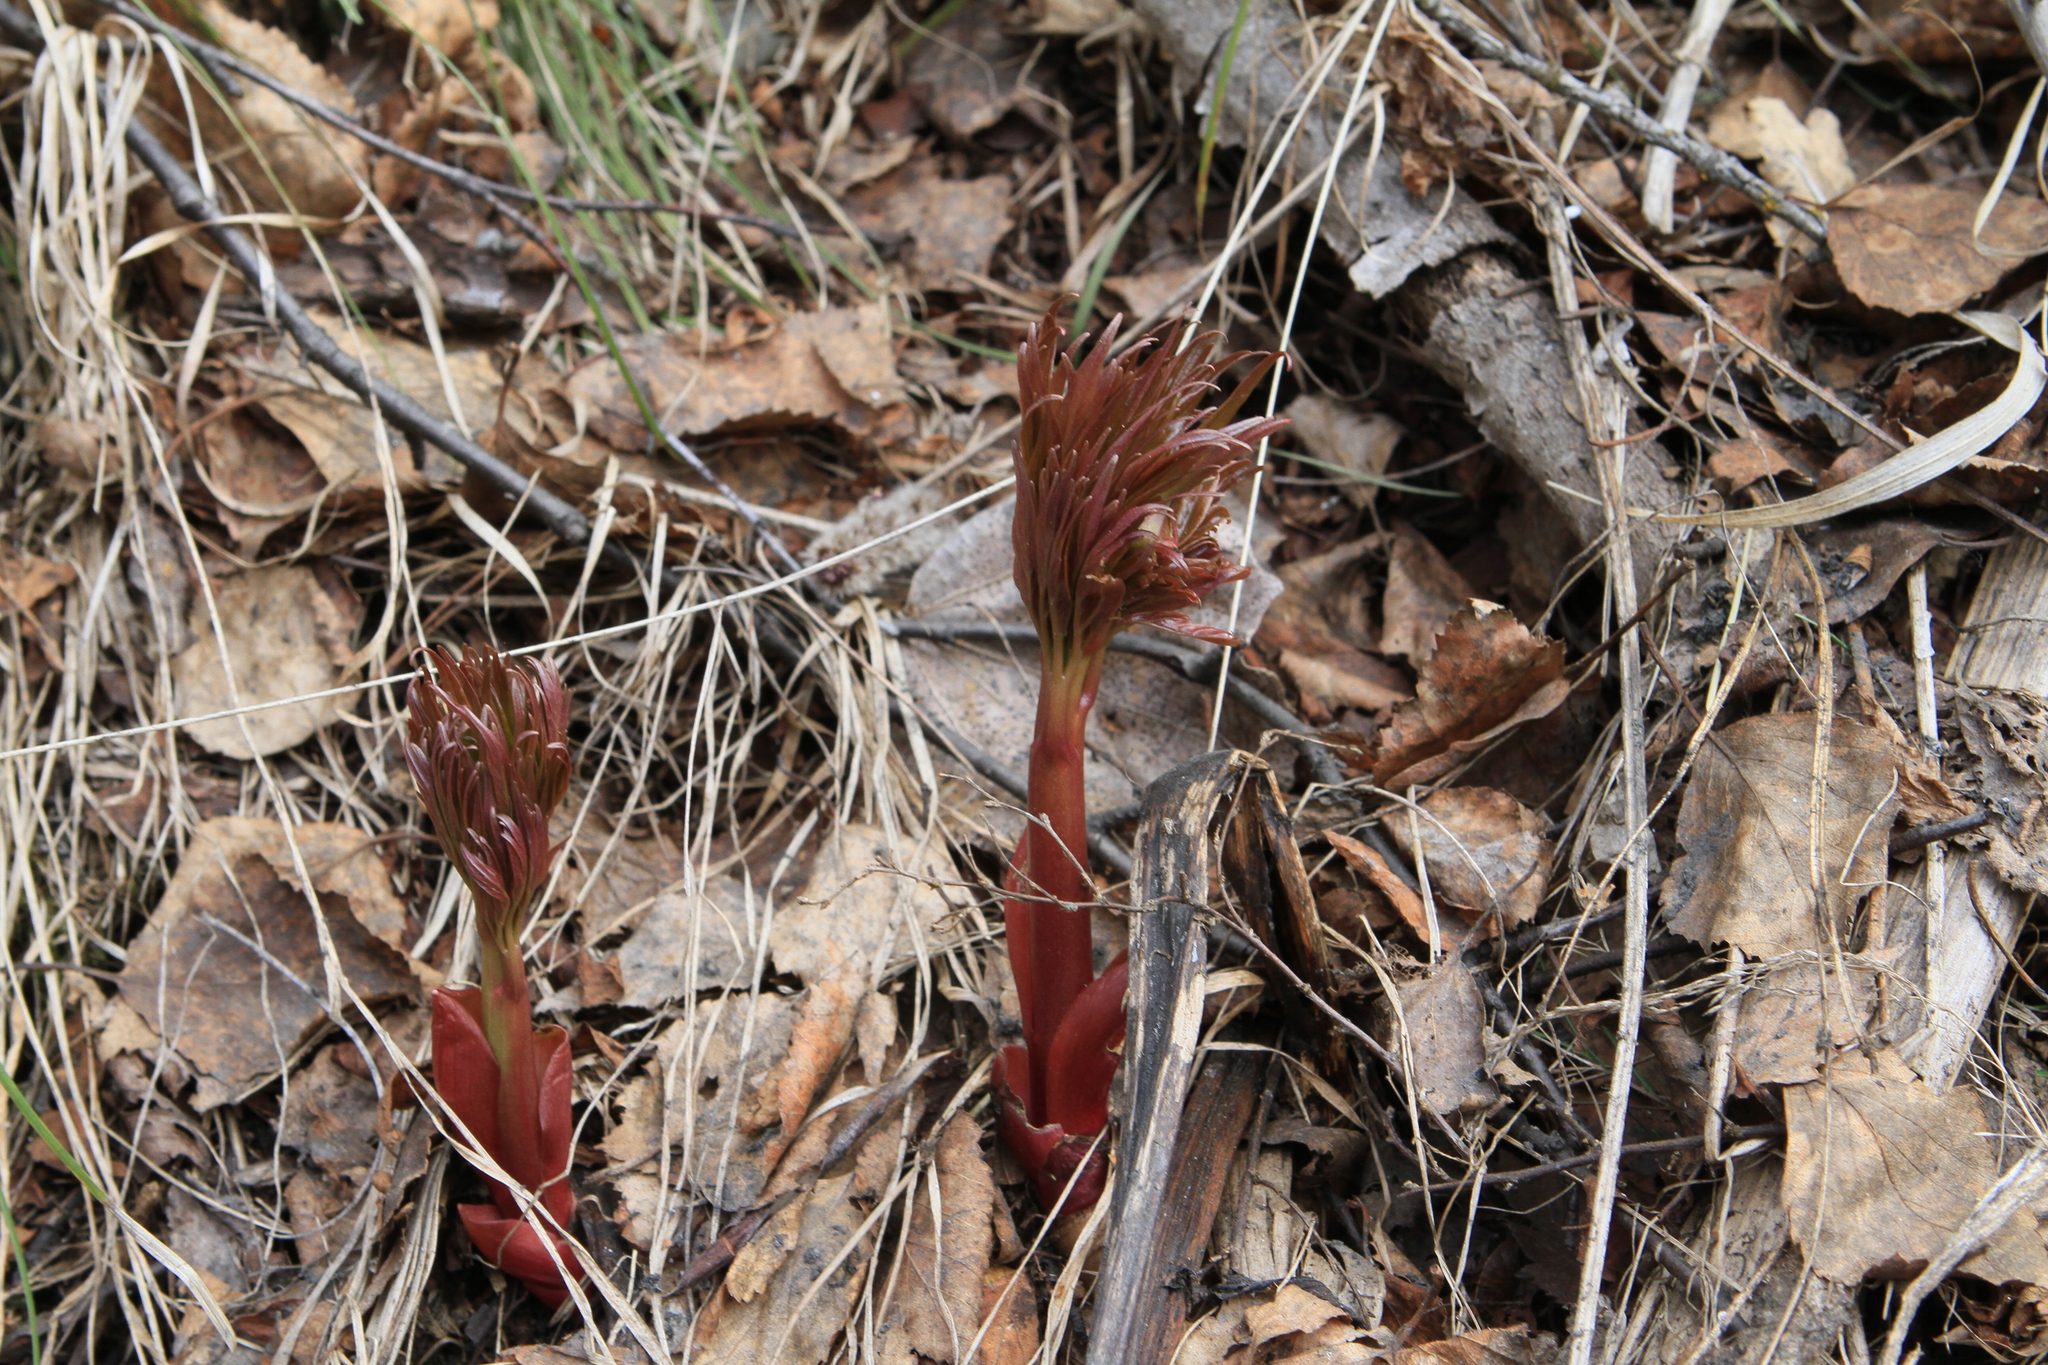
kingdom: Plantae
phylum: Tracheophyta
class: Magnoliopsida
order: Saxifragales
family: Paeoniaceae
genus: Paeonia
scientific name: Paeonia anomala
